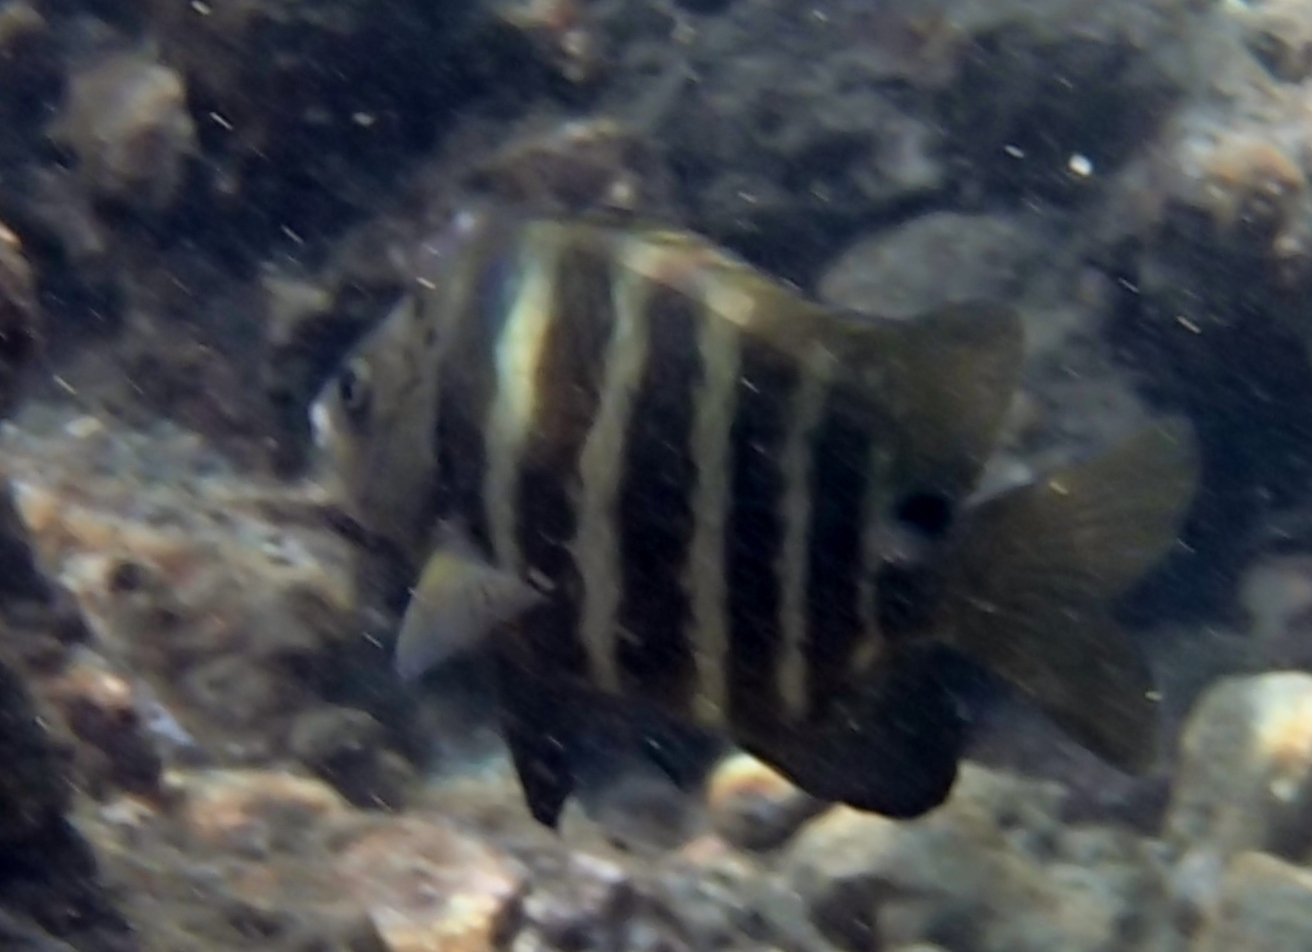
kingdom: Animalia
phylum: Chordata
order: Perciformes
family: Pomacentridae
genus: Abudefduf
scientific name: Abudefduf sordidus
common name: Blackspot sergeant
